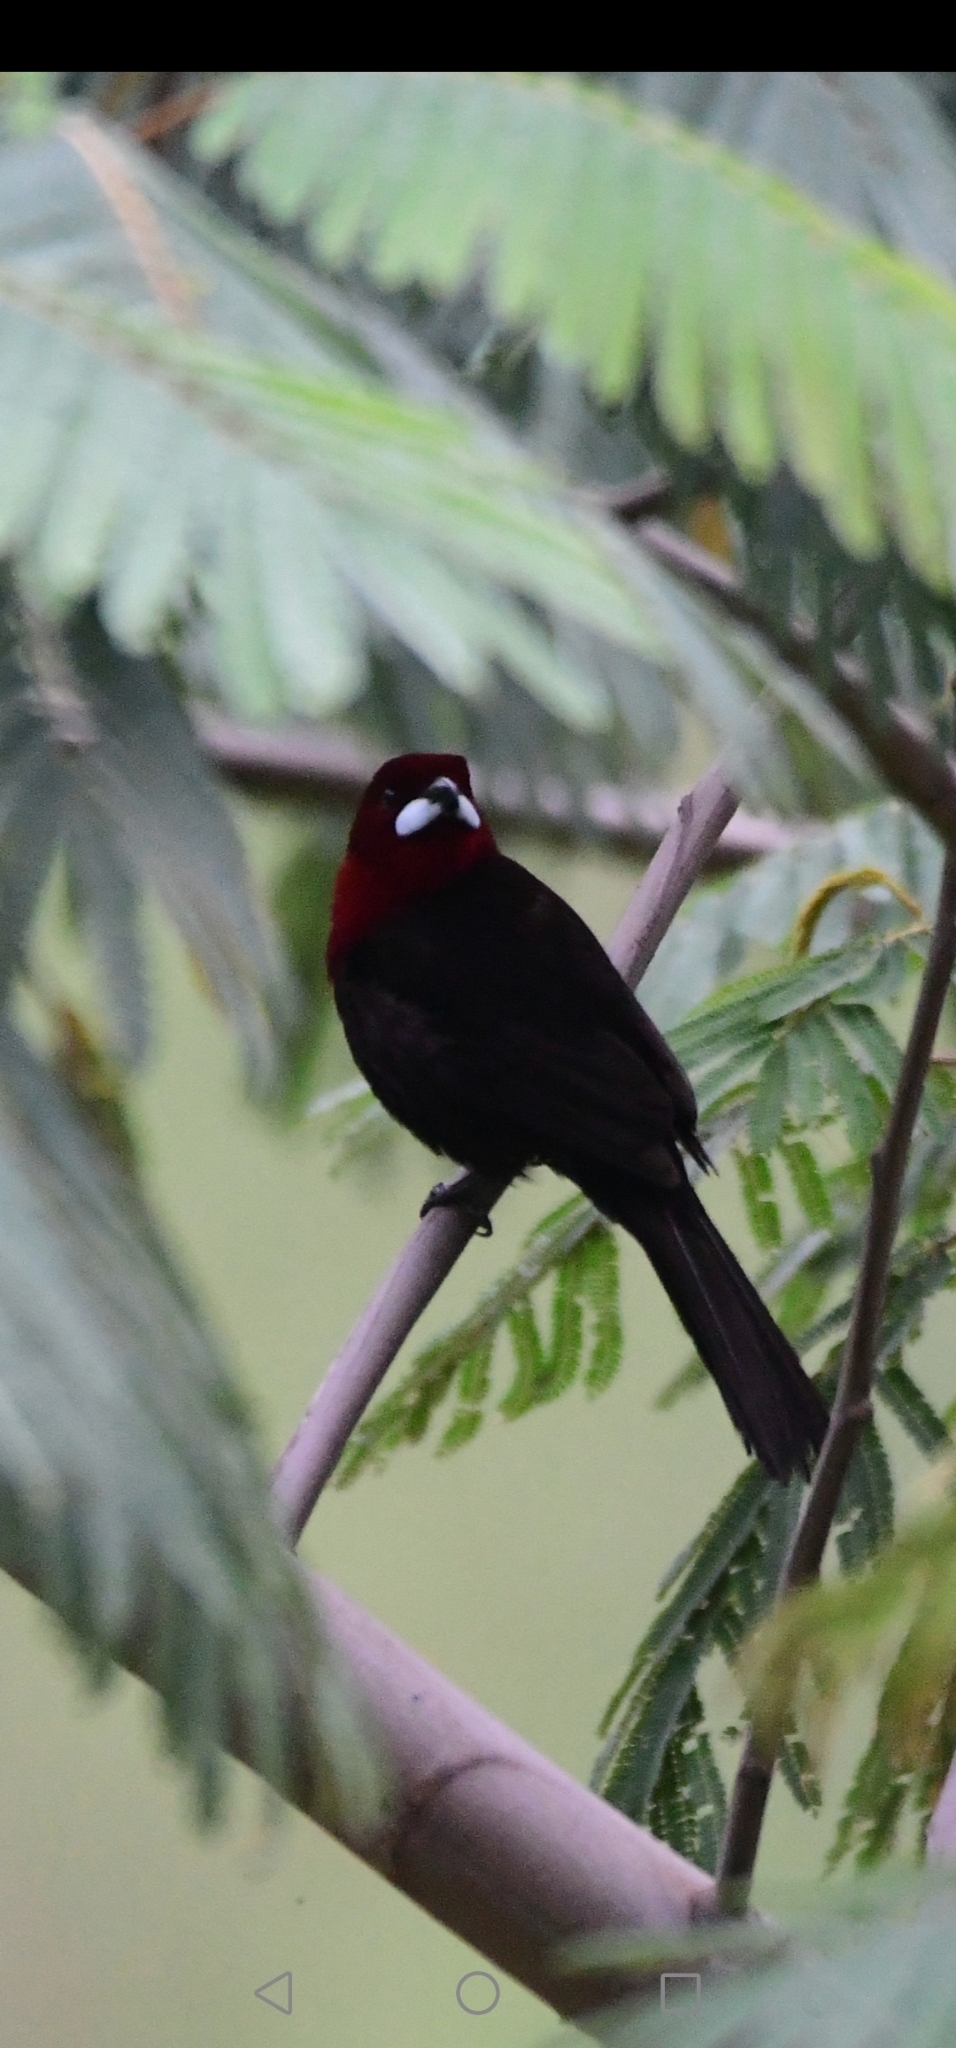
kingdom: Animalia
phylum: Chordata
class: Aves
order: Passeriformes
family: Thraupidae
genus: Ramphocelus
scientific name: Ramphocelus carbo
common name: Silver-beaked tanager
